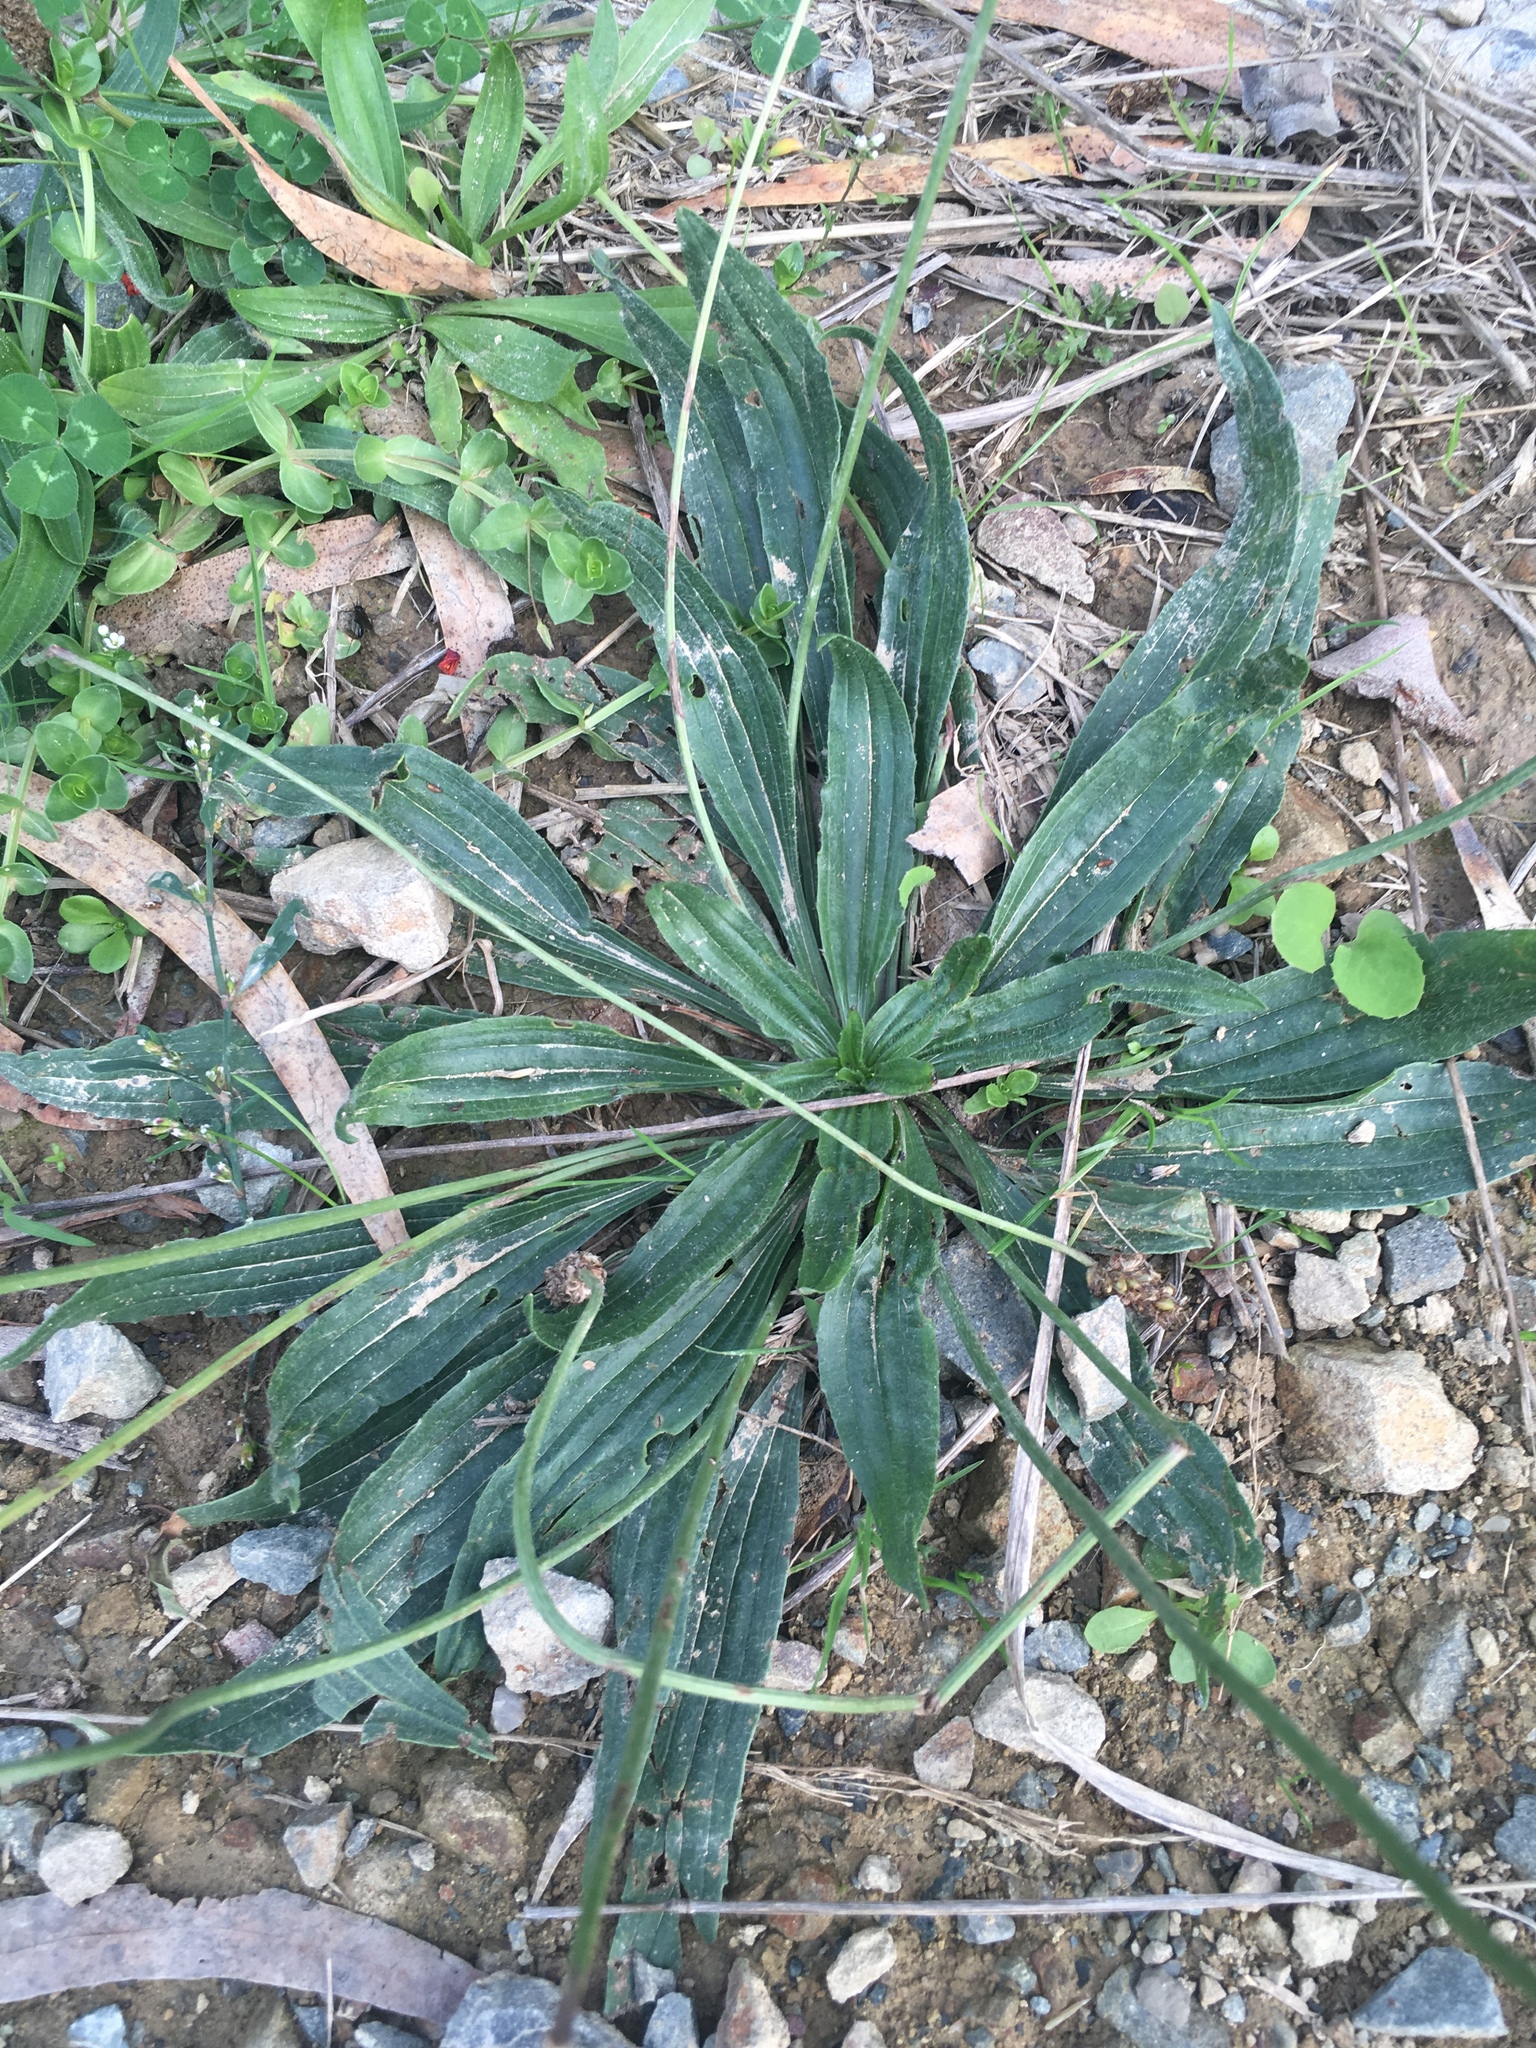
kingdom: Plantae
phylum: Tracheophyta
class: Magnoliopsida
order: Lamiales
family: Plantaginaceae
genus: Plantago
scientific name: Plantago lanceolata
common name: Ribwort plantain
